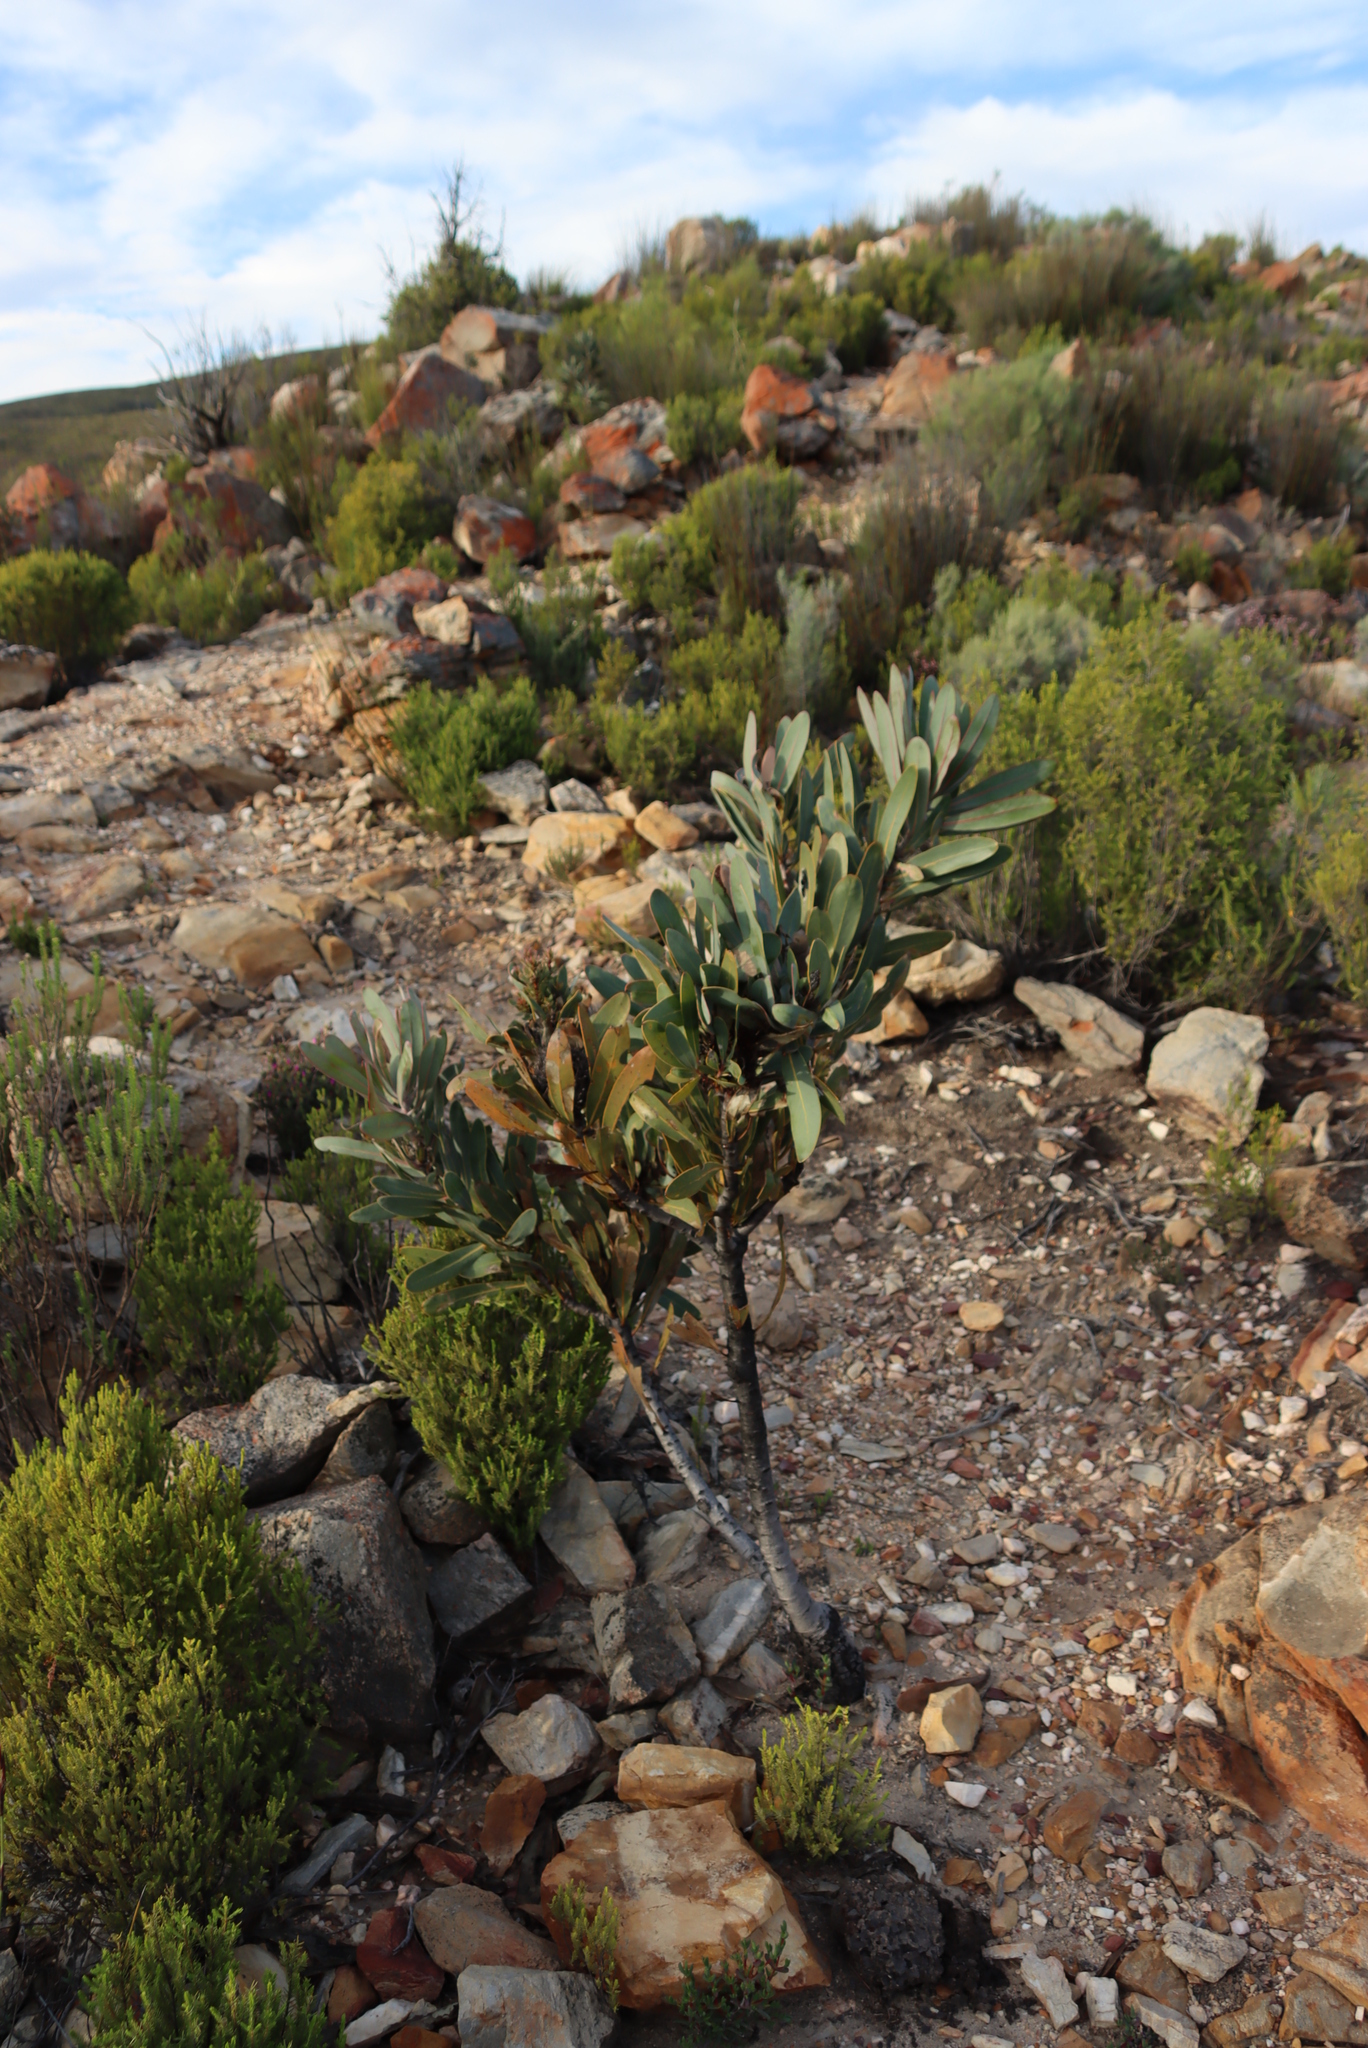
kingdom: Bacteria
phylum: Firmicutes
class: Bacilli
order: Acholeplasmatales
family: Acholeplasmataceae
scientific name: Acholeplasmataceae
